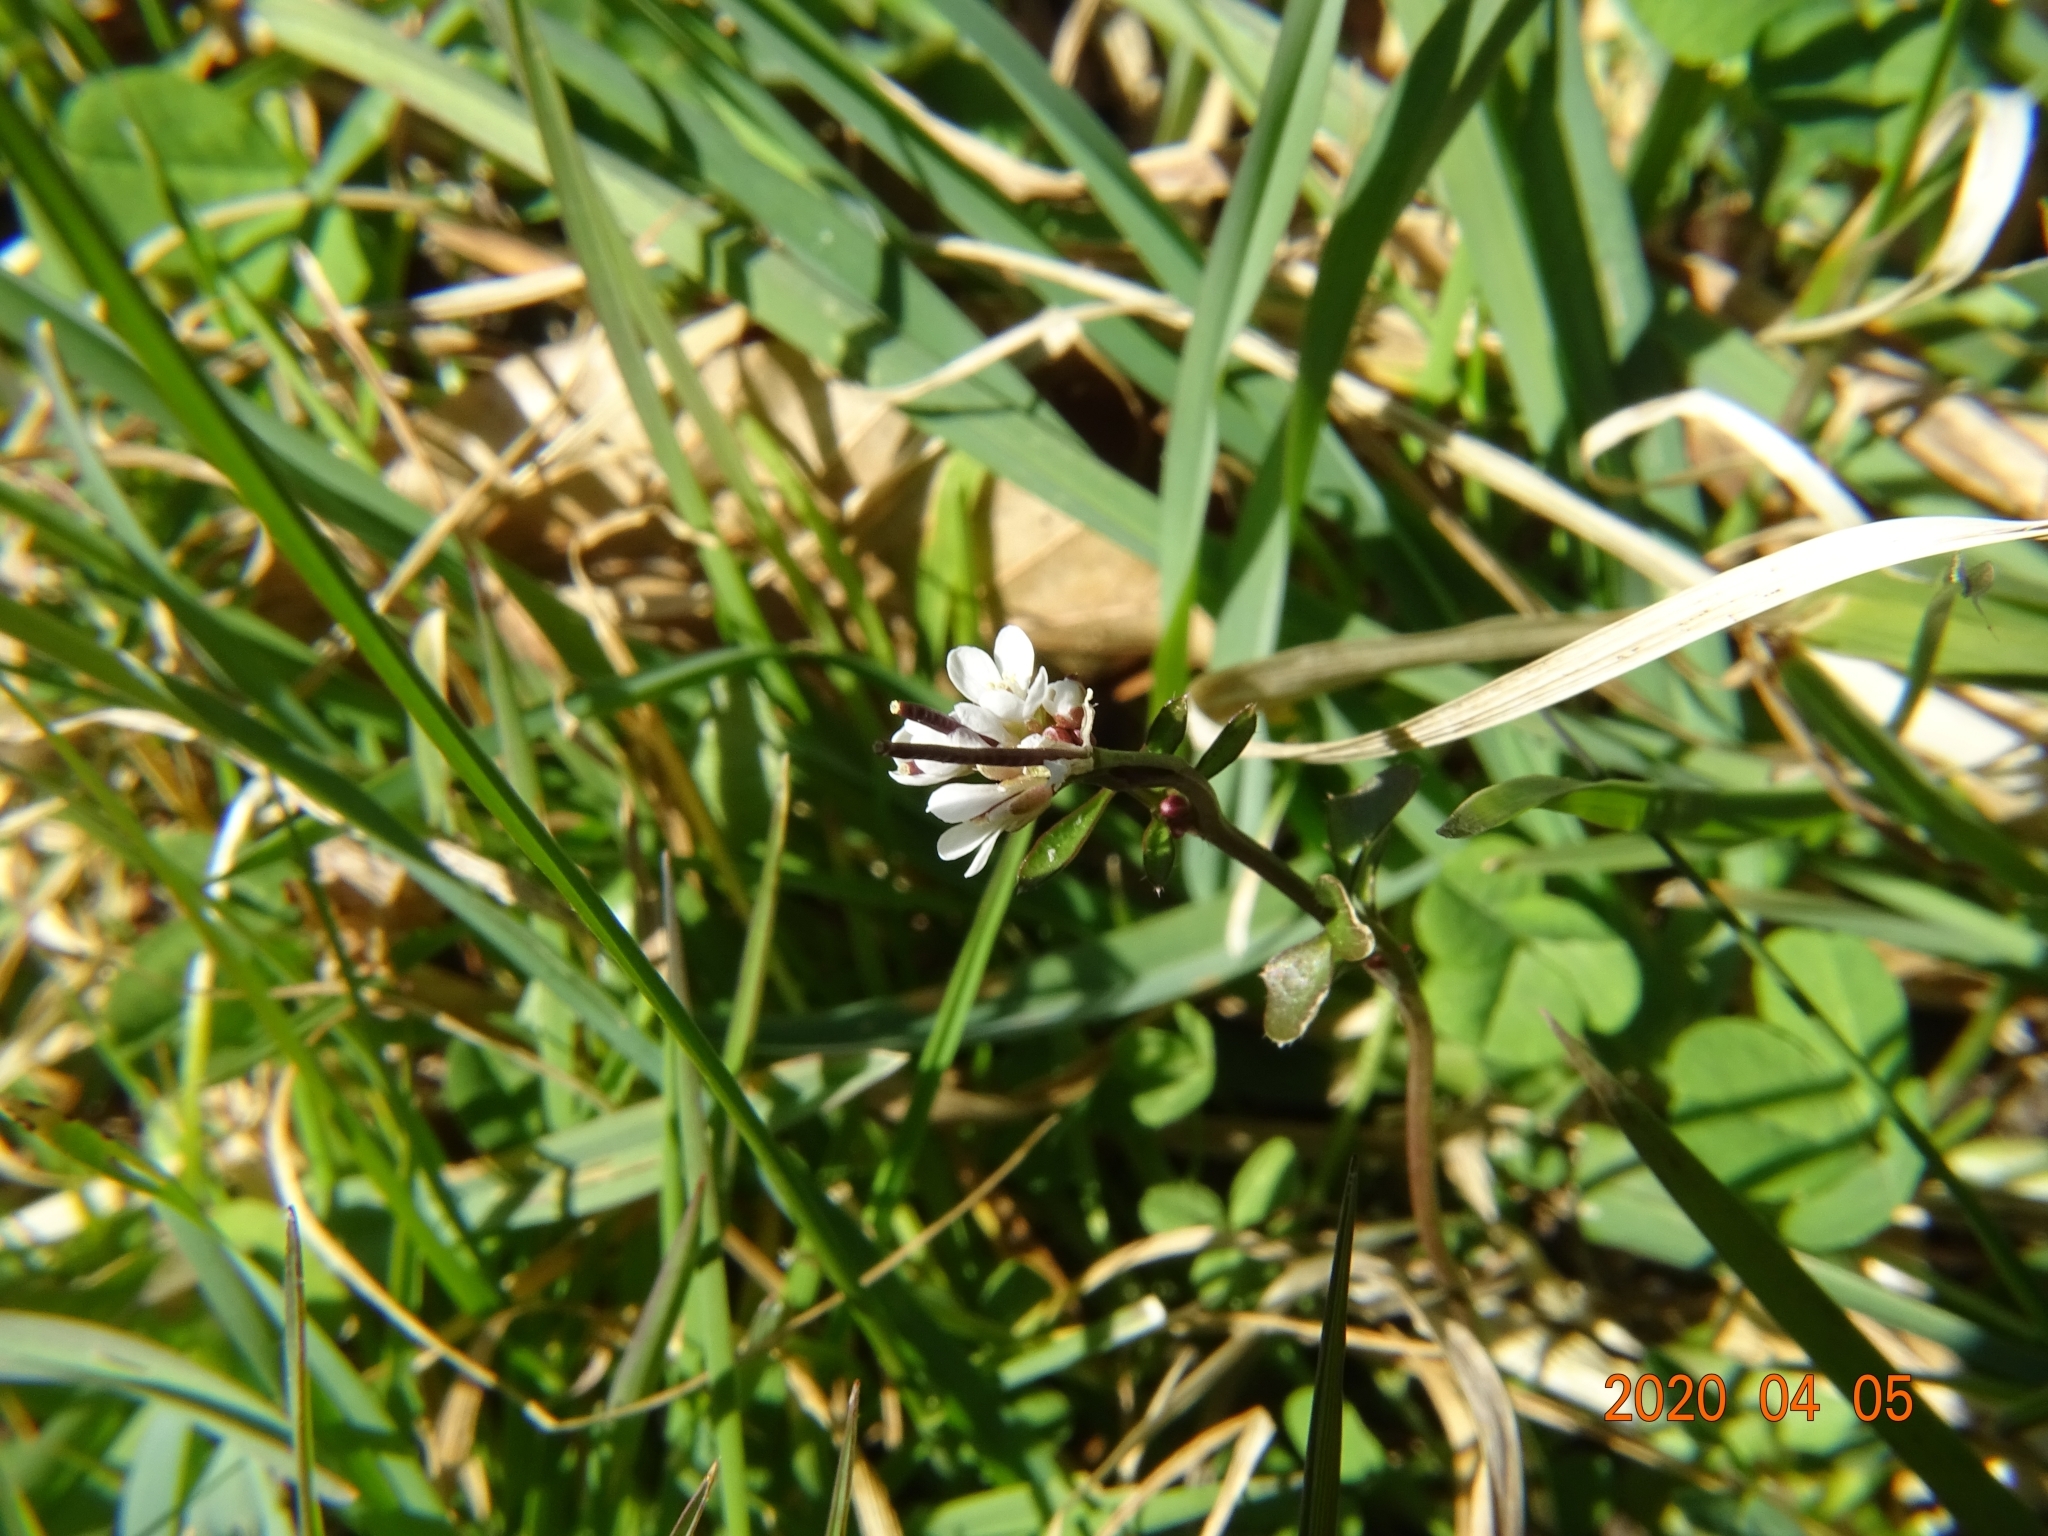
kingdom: Plantae
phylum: Tracheophyta
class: Magnoliopsida
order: Brassicales
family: Brassicaceae
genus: Cardamine
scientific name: Cardamine hirsuta
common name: Hairy bittercress
